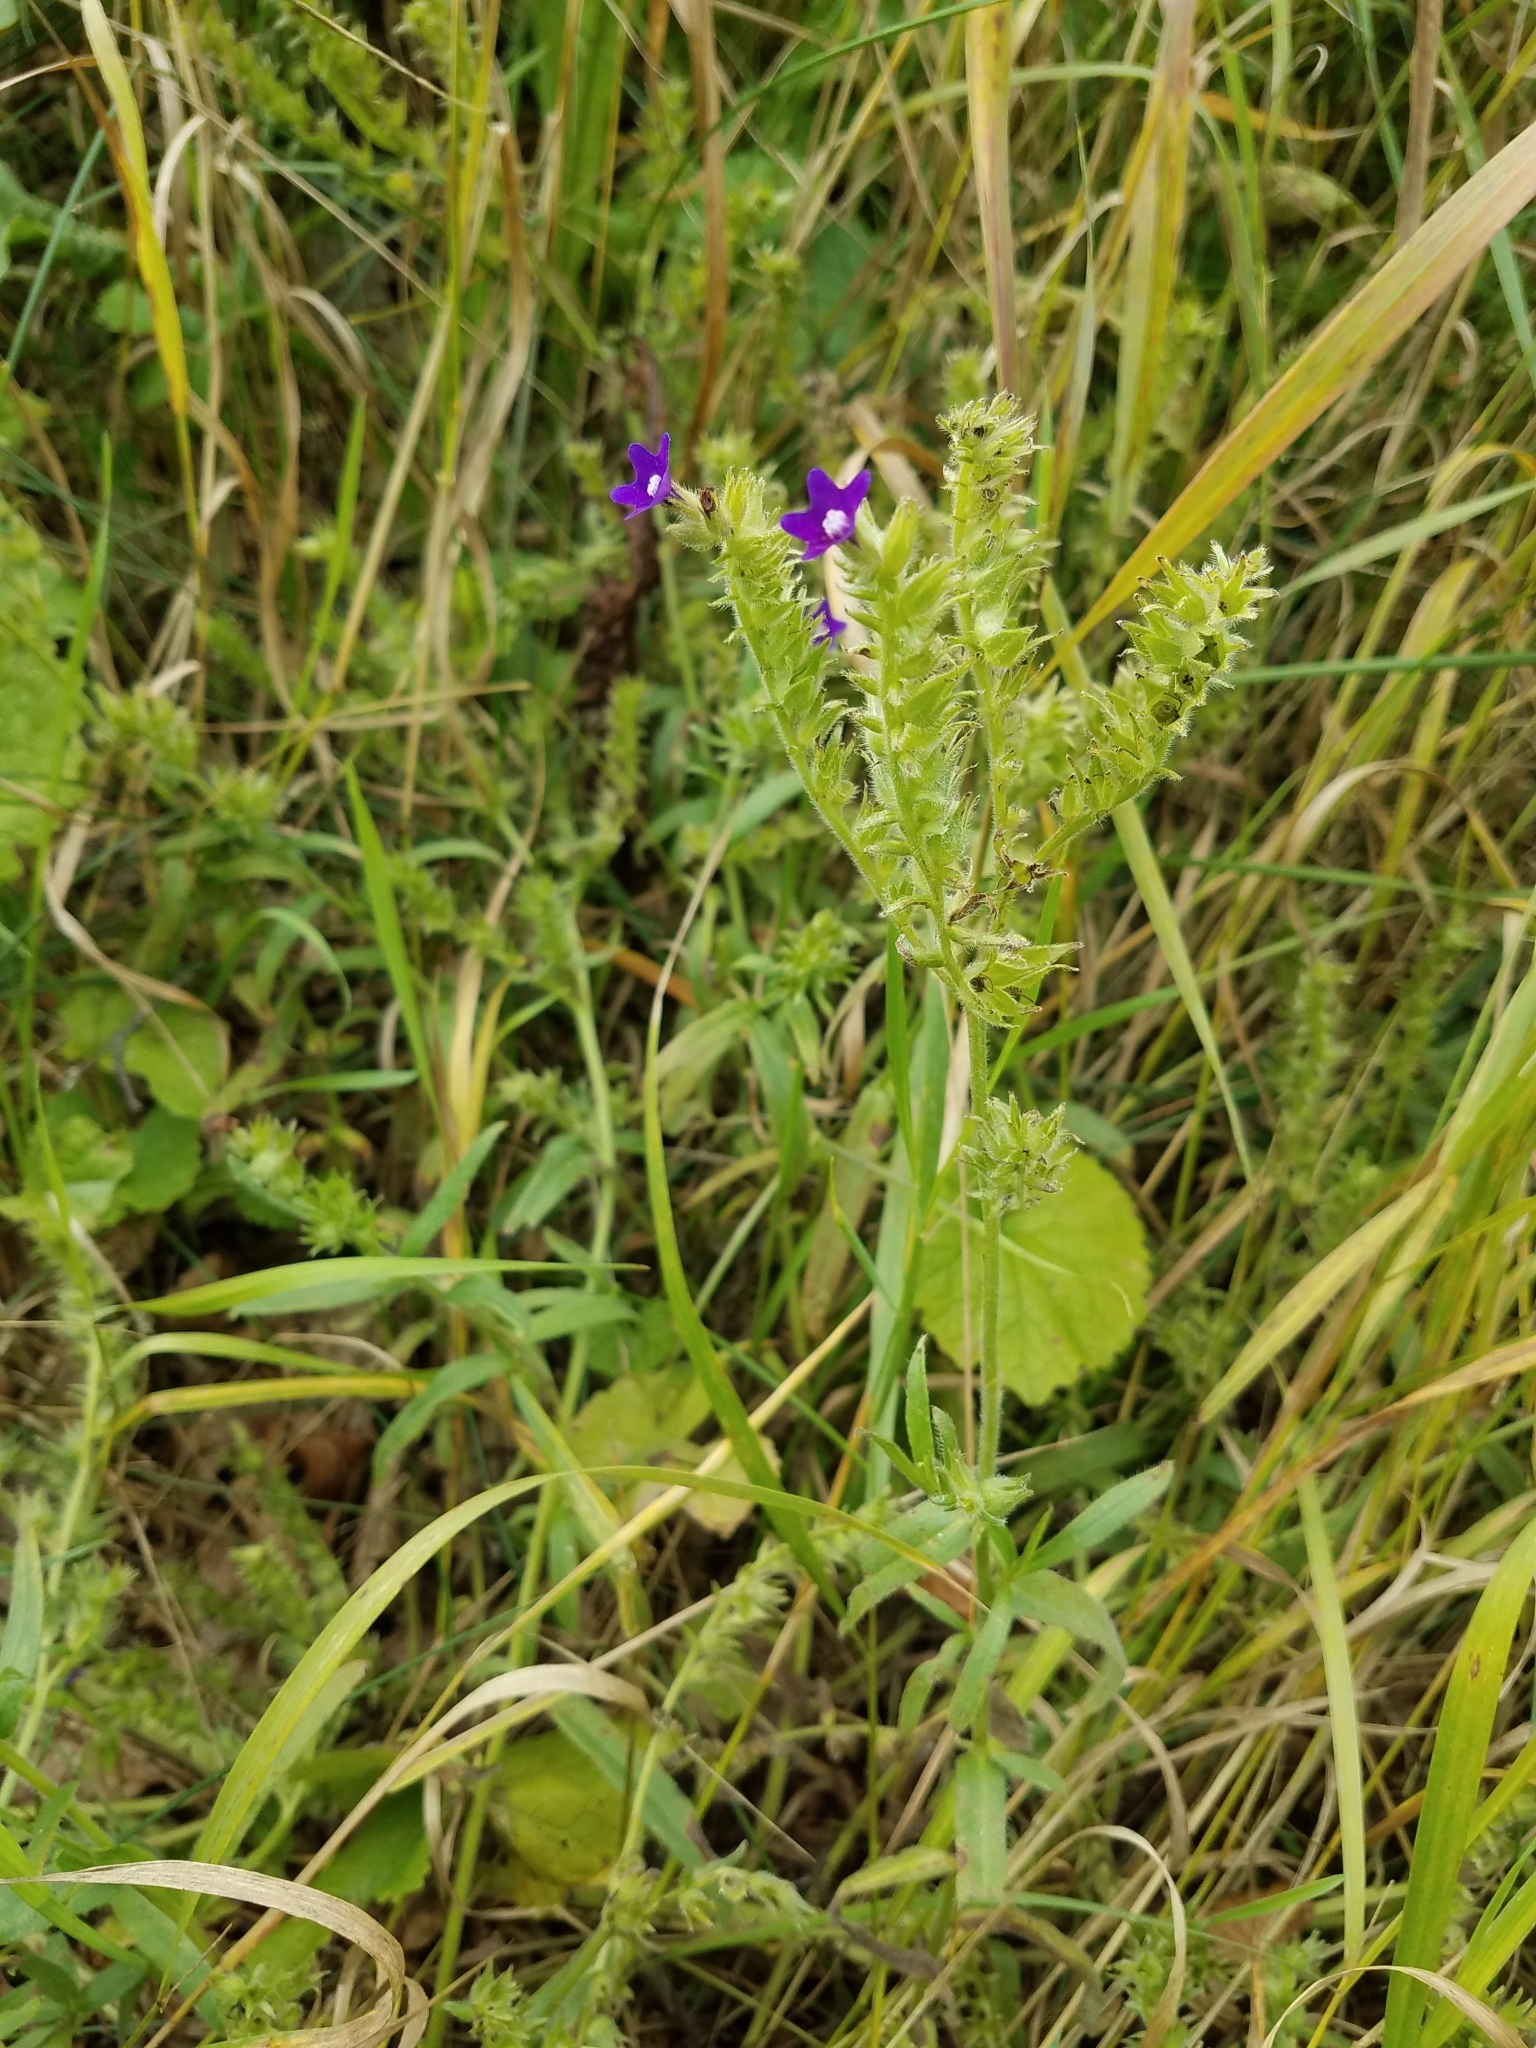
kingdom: Plantae
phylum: Tracheophyta
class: Magnoliopsida
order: Boraginales
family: Boraginaceae
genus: Anchusa
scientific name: Anchusa officinalis
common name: Alkanet
